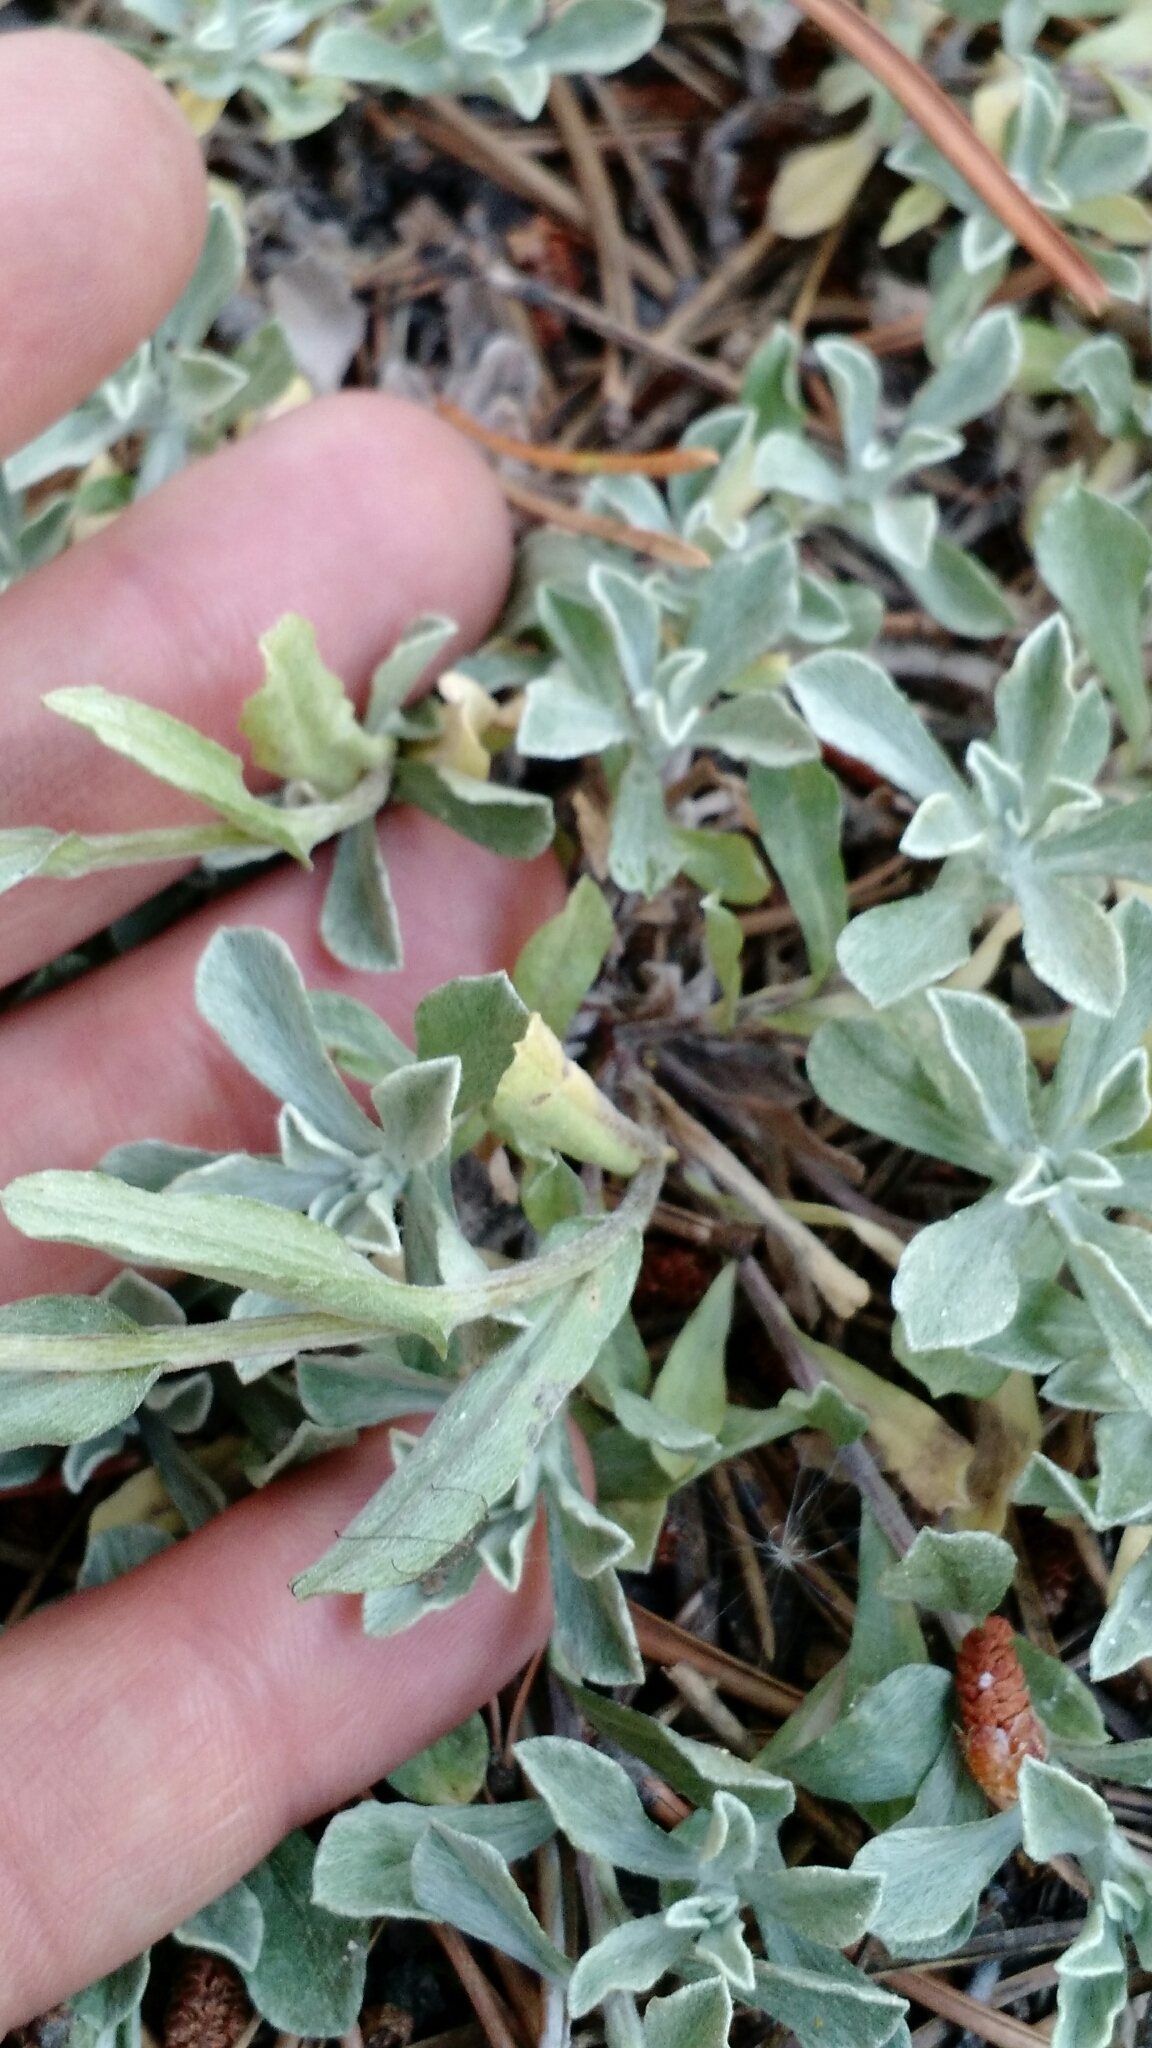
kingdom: Plantae
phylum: Tracheophyta
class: Magnoliopsida
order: Asterales
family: Asteraceae
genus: Antennaria
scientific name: Antennaria rosea
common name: Rosy pussytoes
